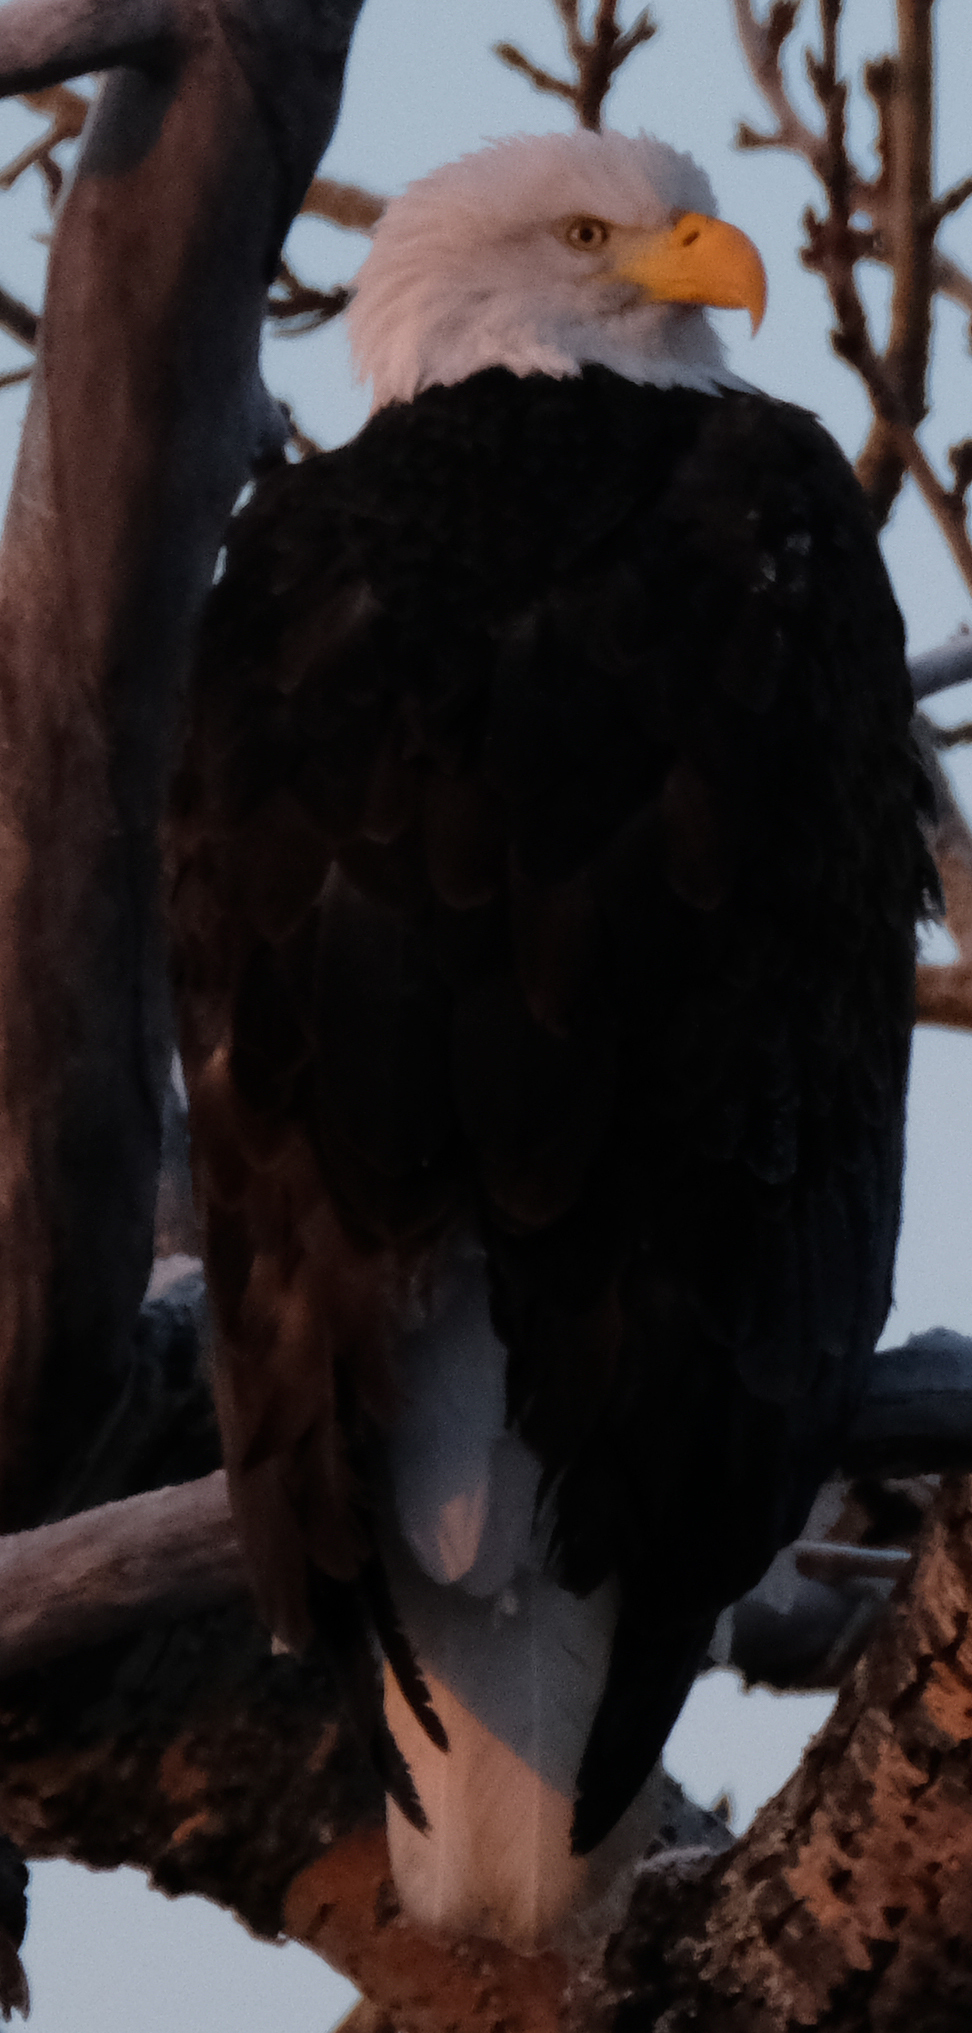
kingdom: Animalia
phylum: Chordata
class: Aves
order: Accipitriformes
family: Accipitridae
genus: Haliaeetus
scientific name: Haliaeetus leucocephalus
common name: Bald eagle
